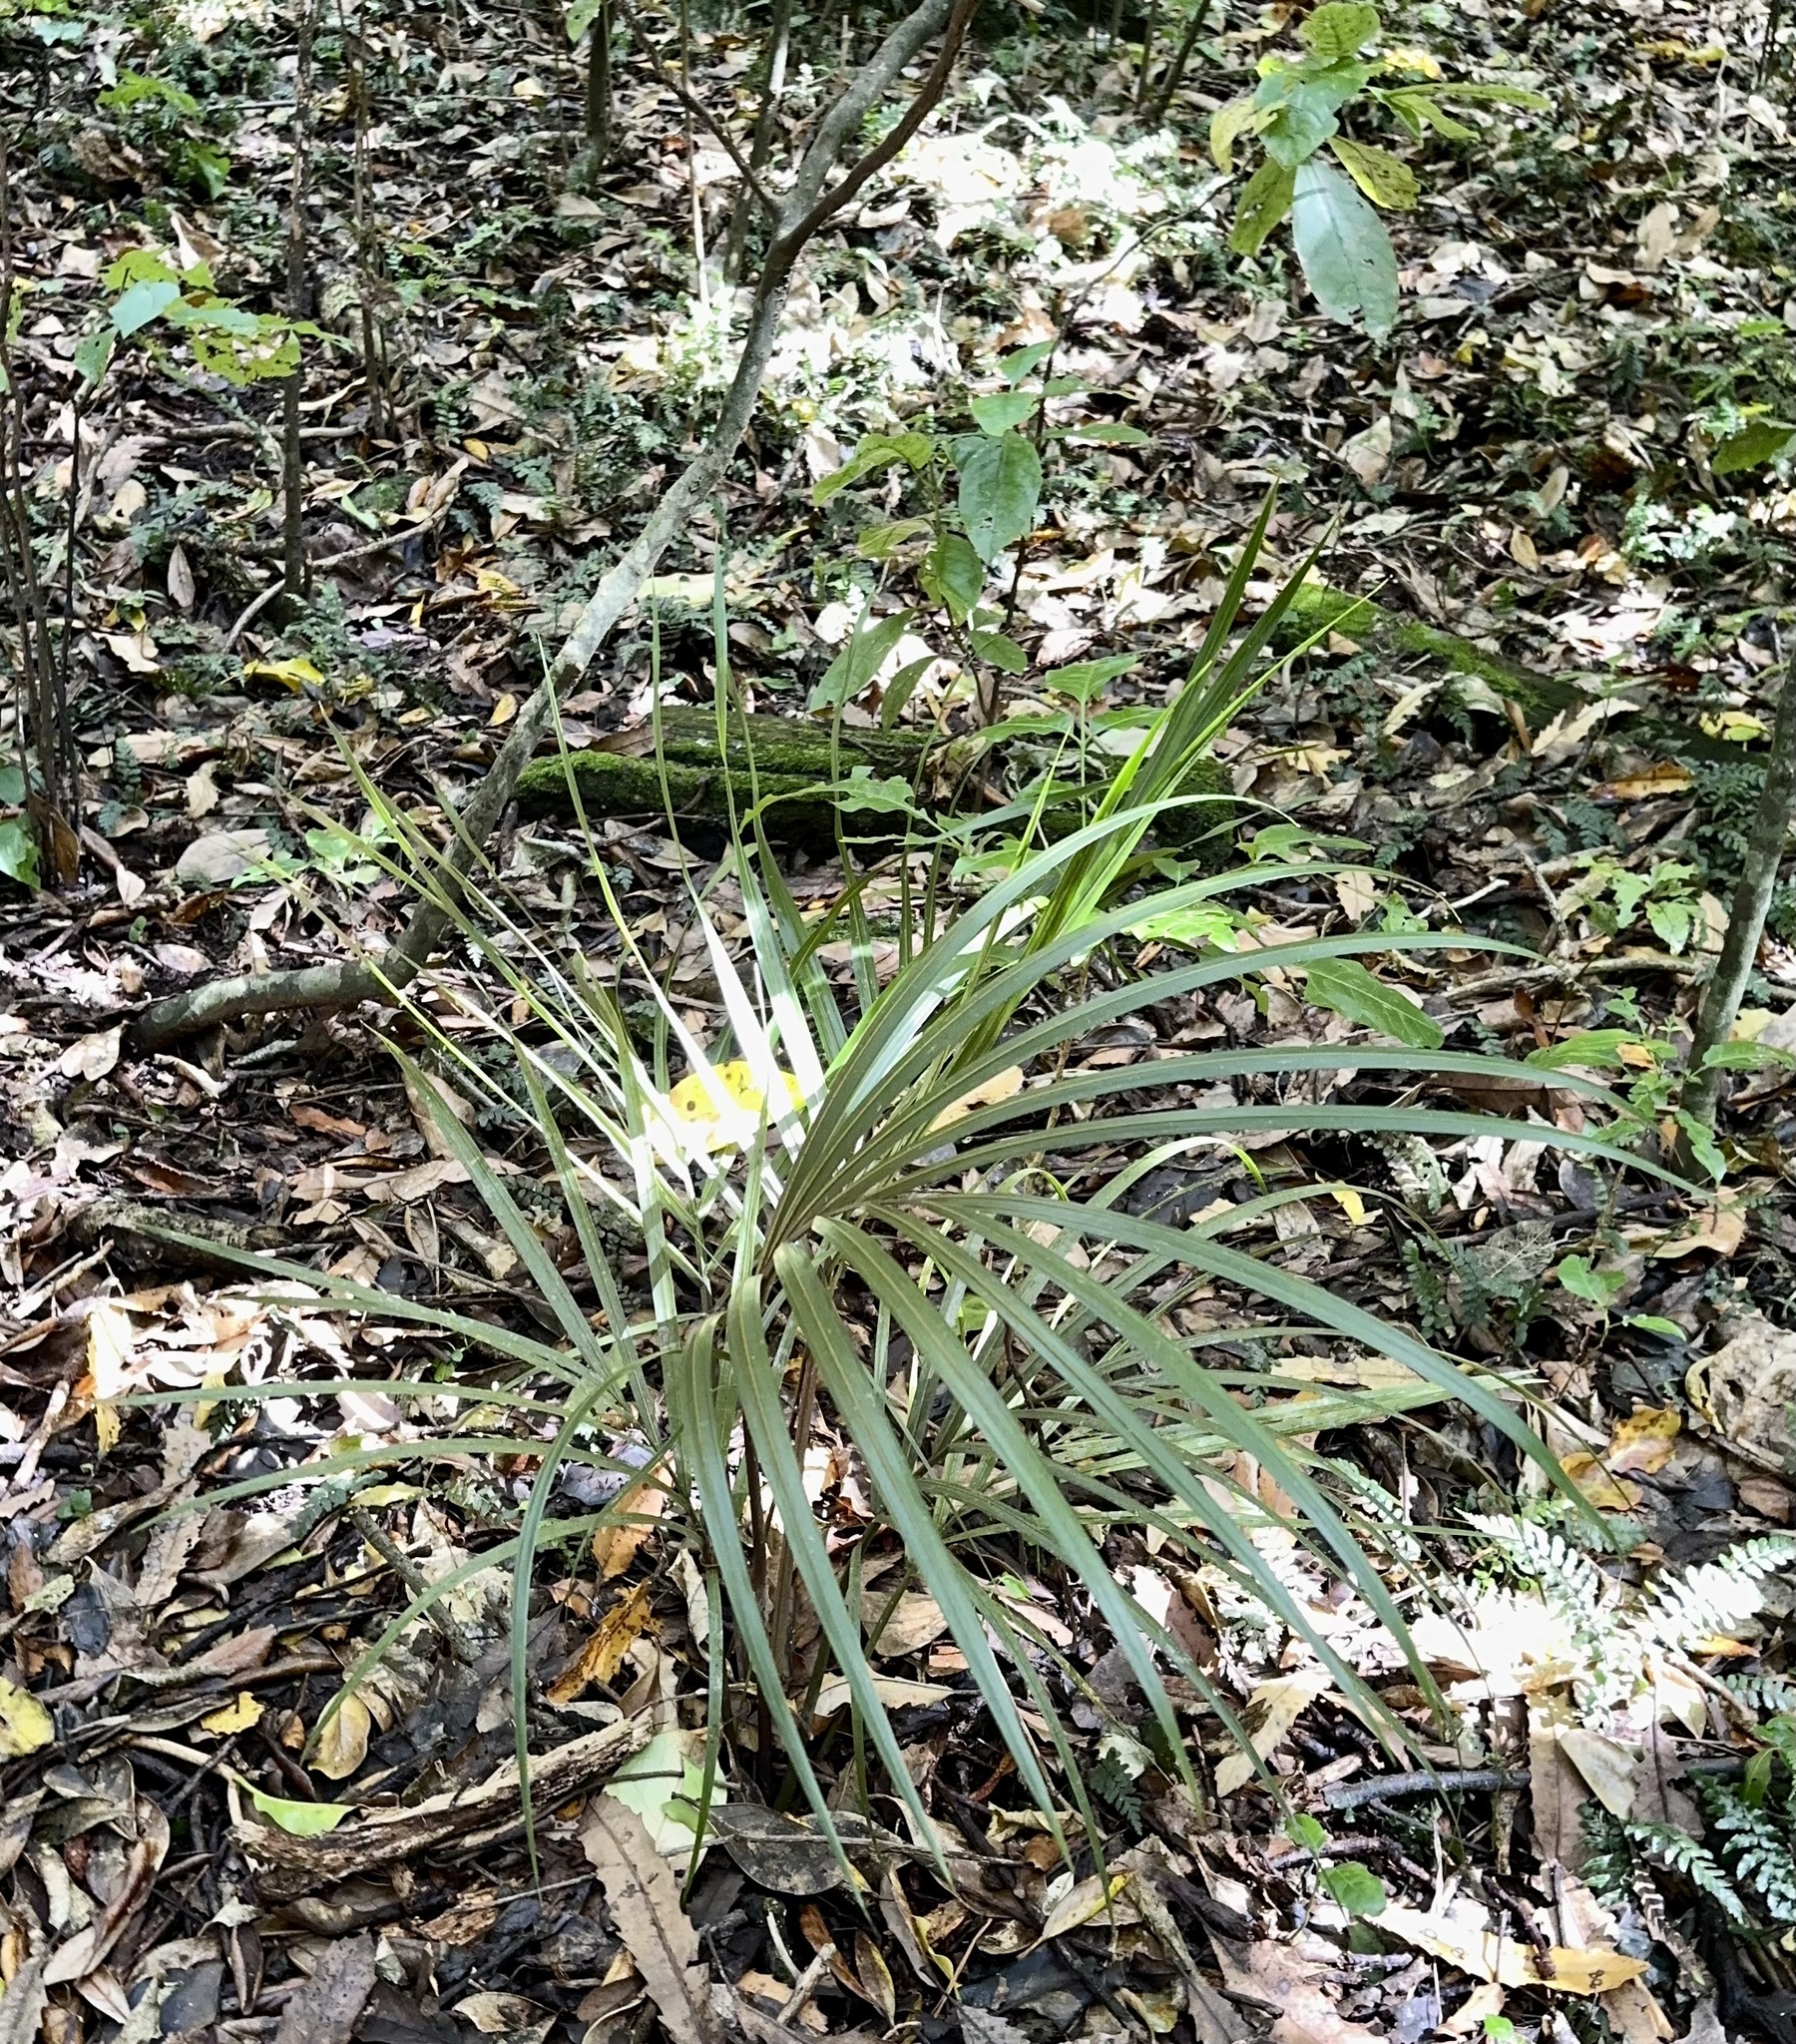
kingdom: Plantae
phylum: Tracheophyta
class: Liliopsida
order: Arecales
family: Arecaceae
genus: Rhopalostylis
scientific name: Rhopalostylis sapida
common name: Feather-duster palm
